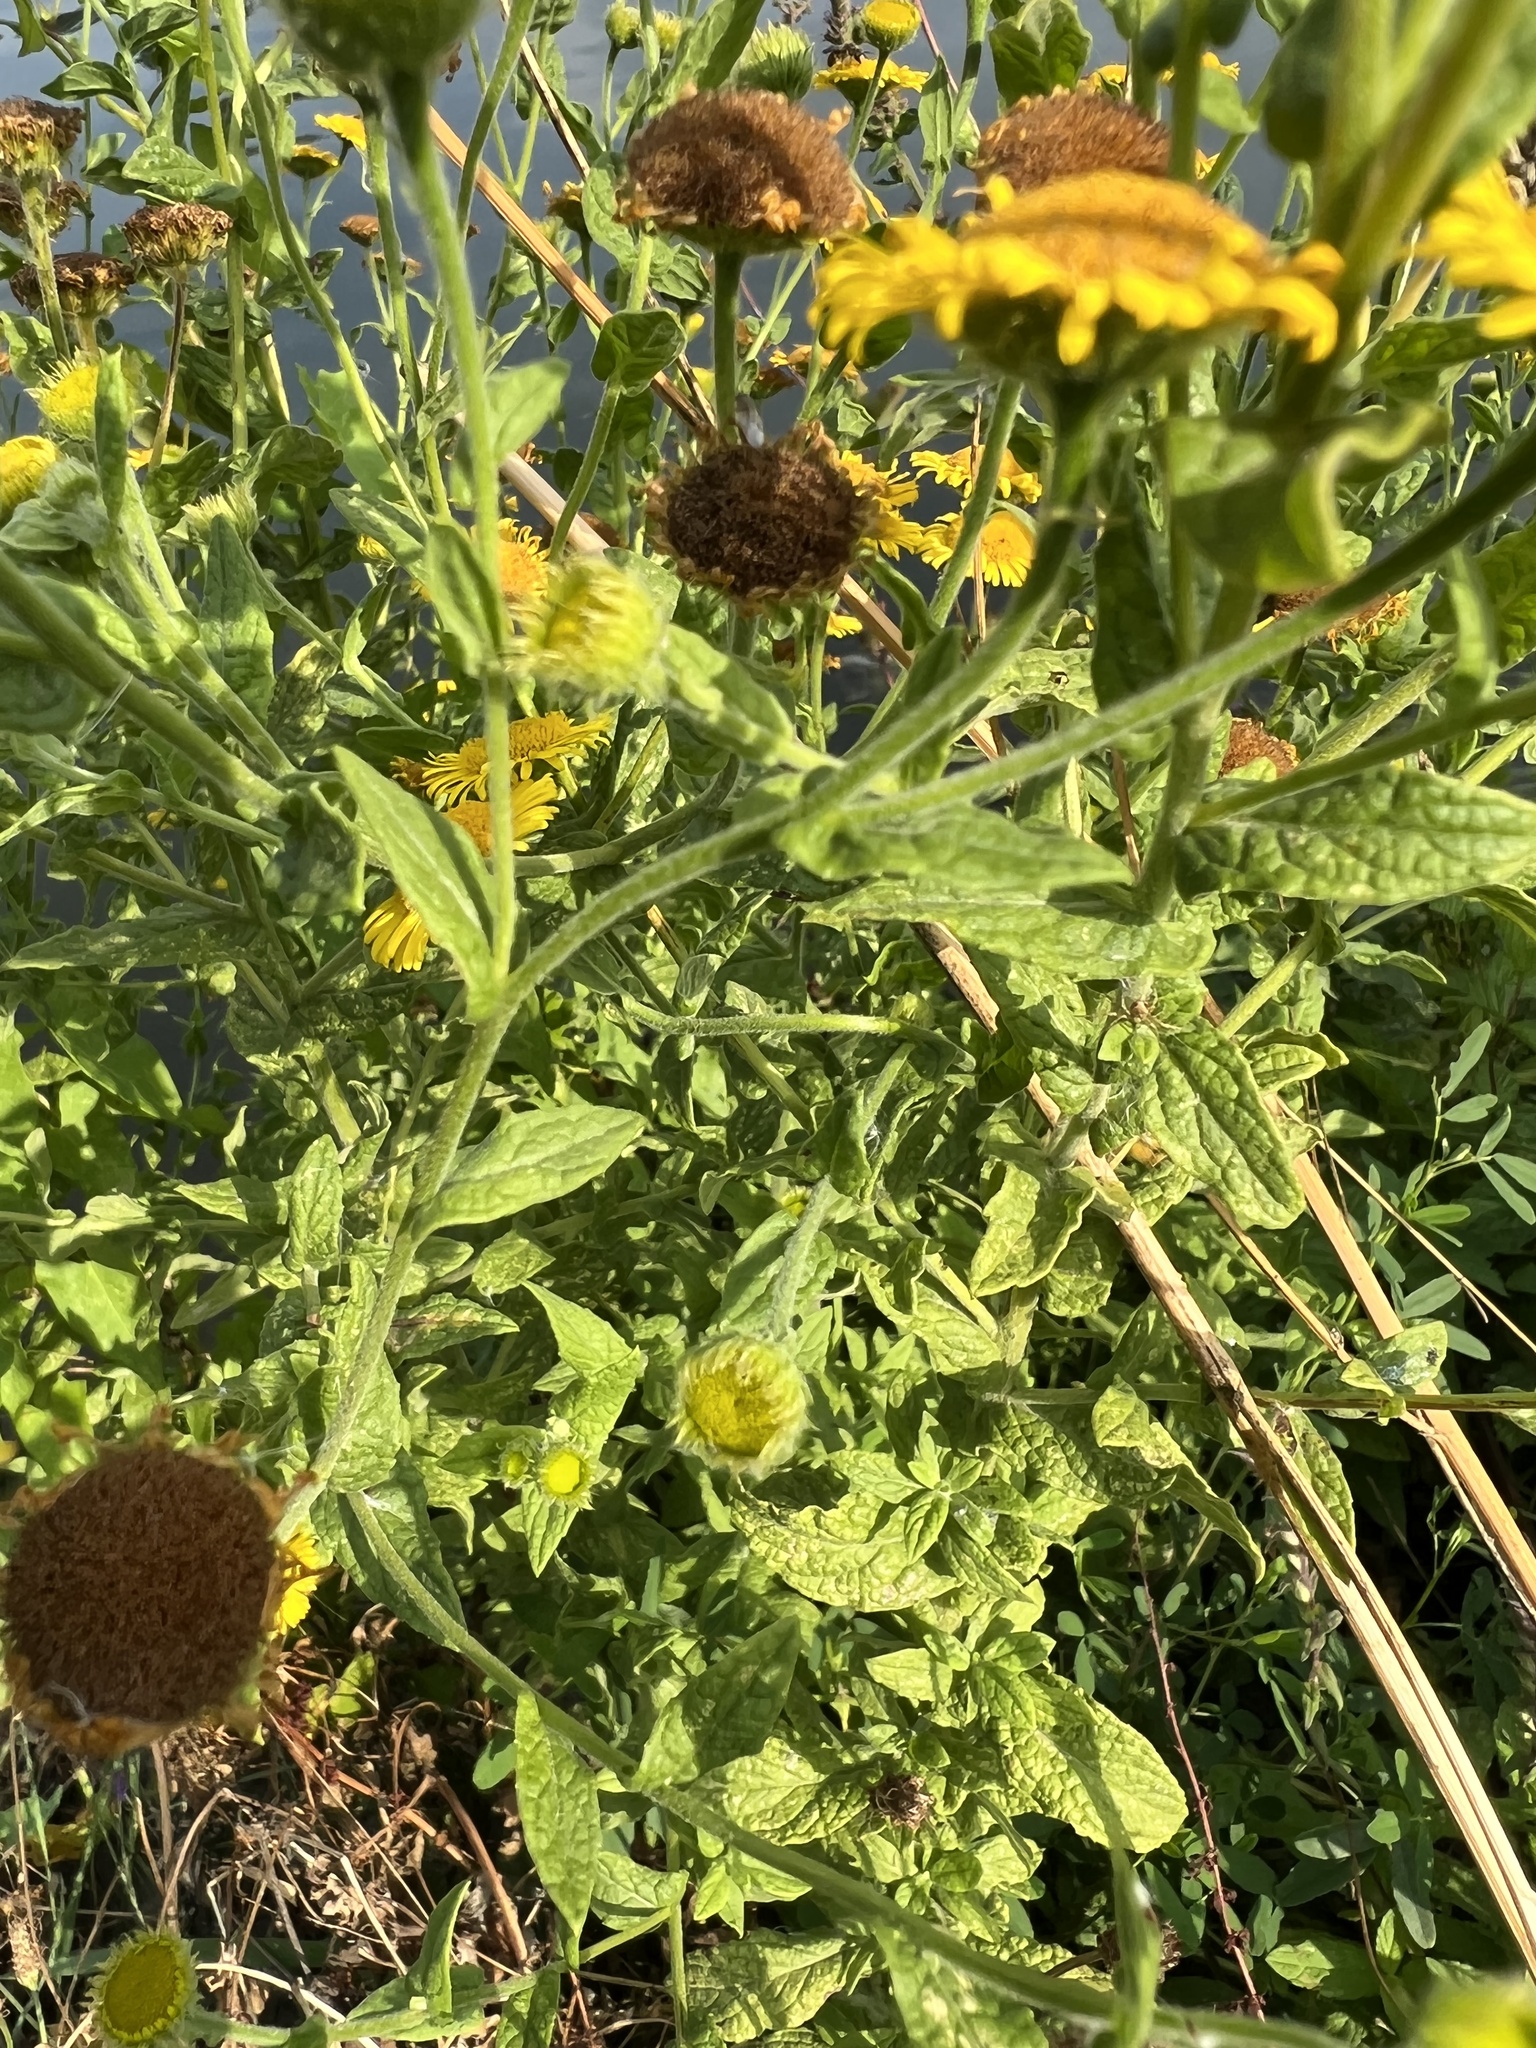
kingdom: Plantae
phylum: Tracheophyta
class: Magnoliopsida
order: Asterales
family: Asteraceae
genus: Pulicaria
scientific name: Pulicaria dysenterica
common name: Common fleabane
